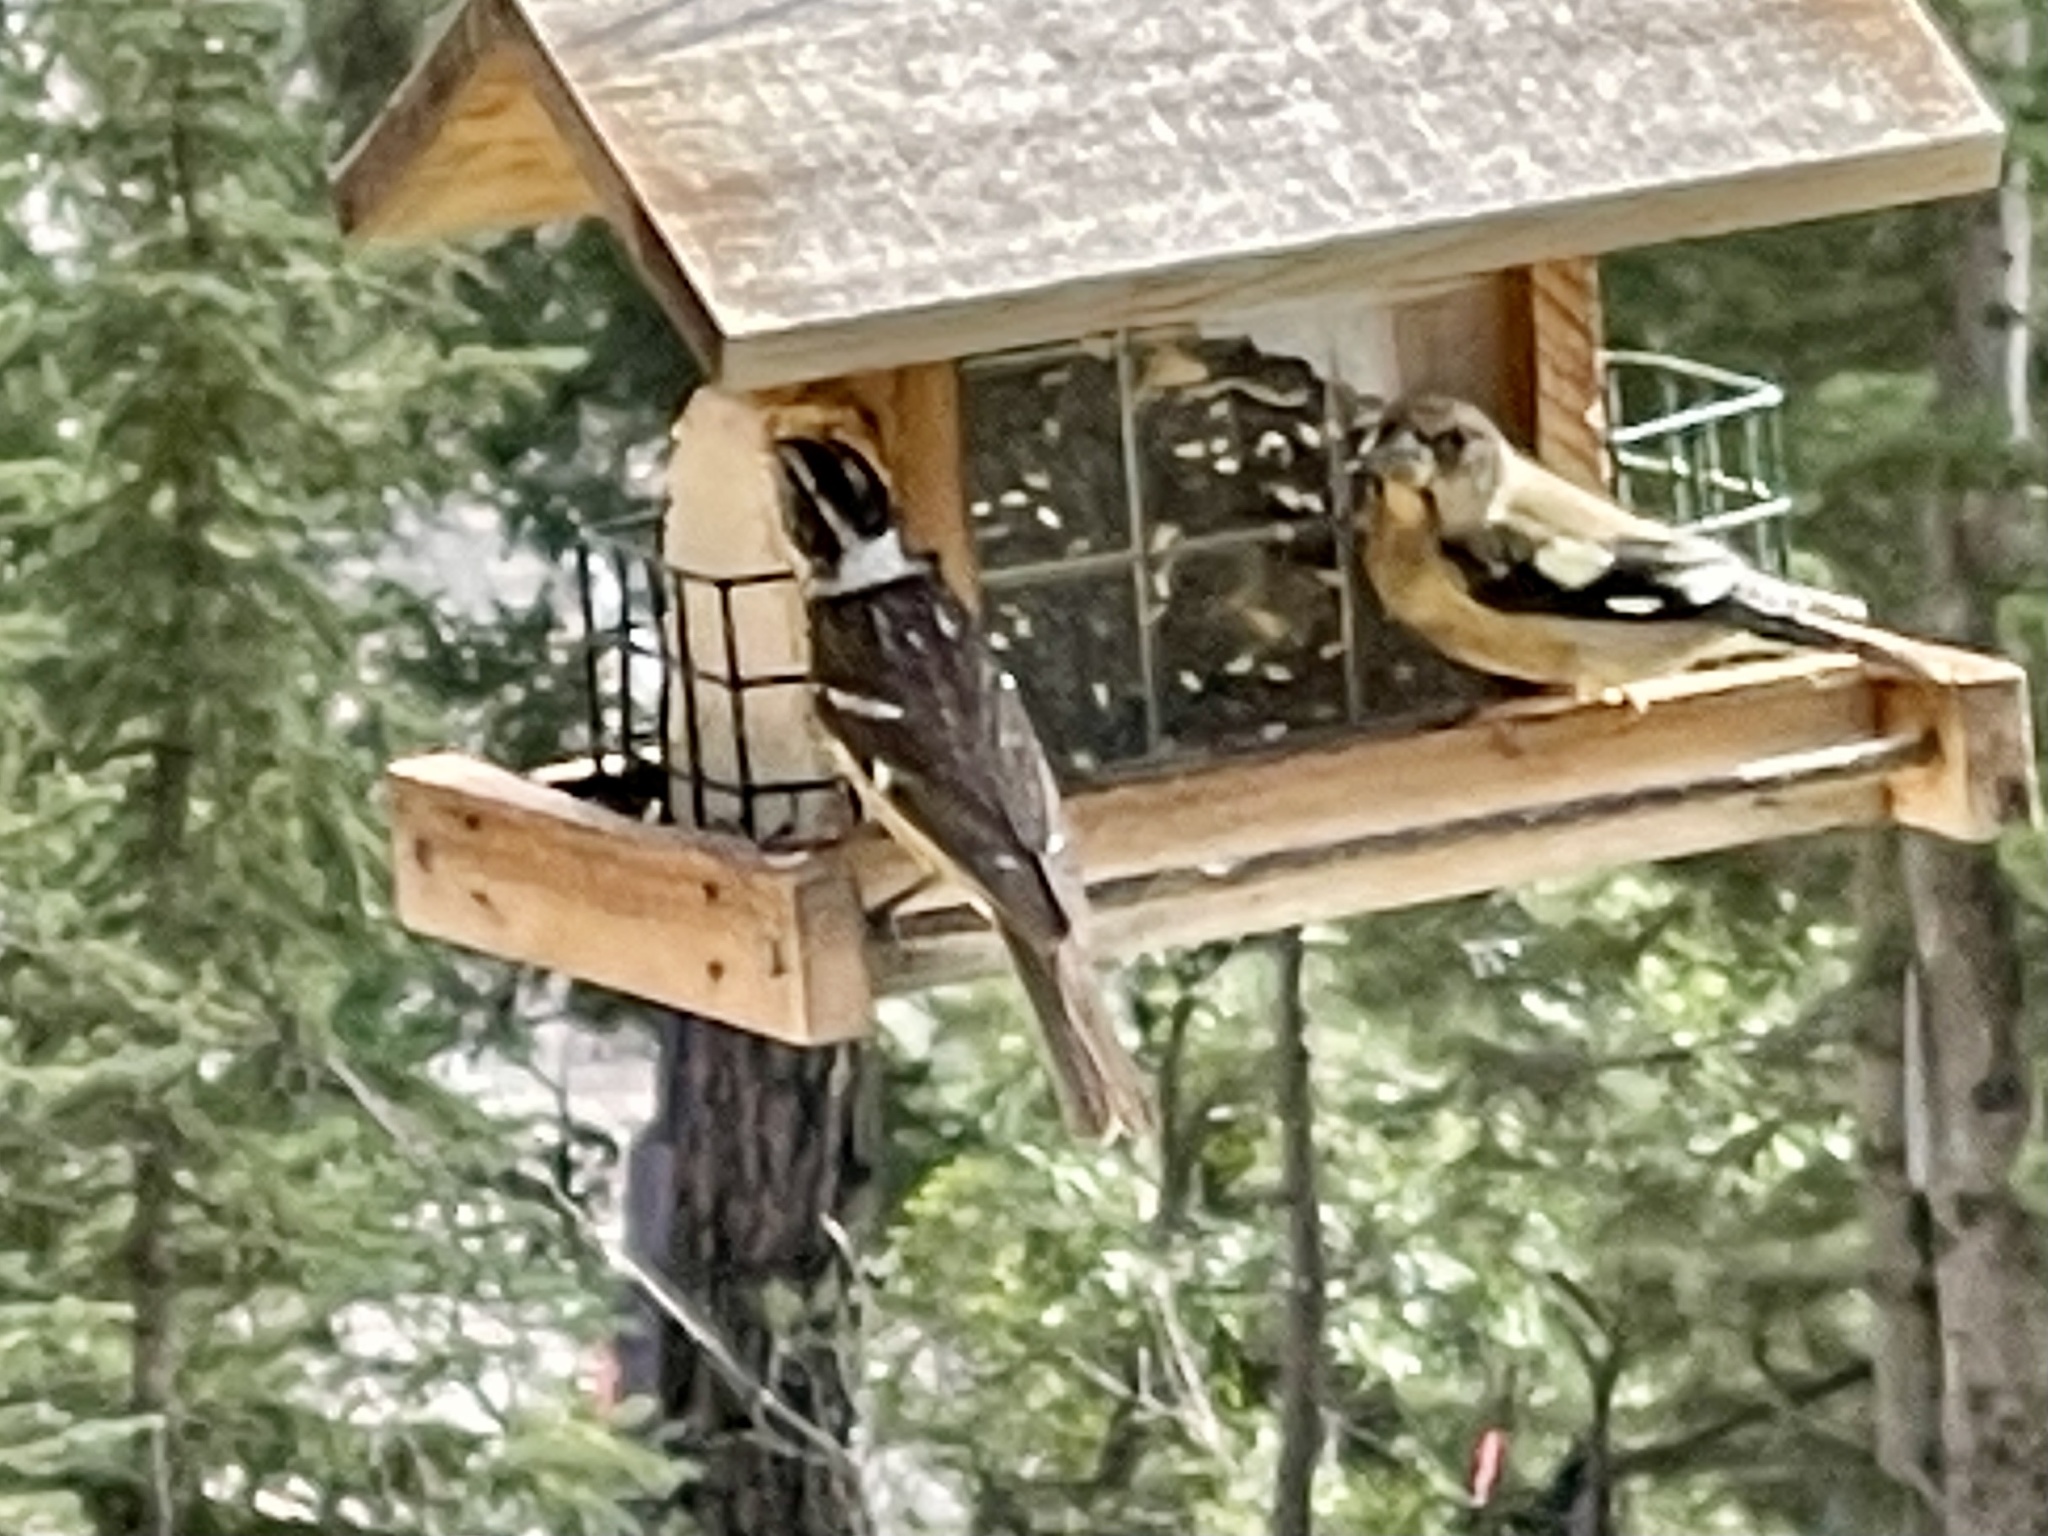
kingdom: Animalia
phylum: Chordata
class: Aves
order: Passeriformes
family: Cardinalidae
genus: Pheucticus
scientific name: Pheucticus melanocephalus
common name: Black-headed grosbeak
